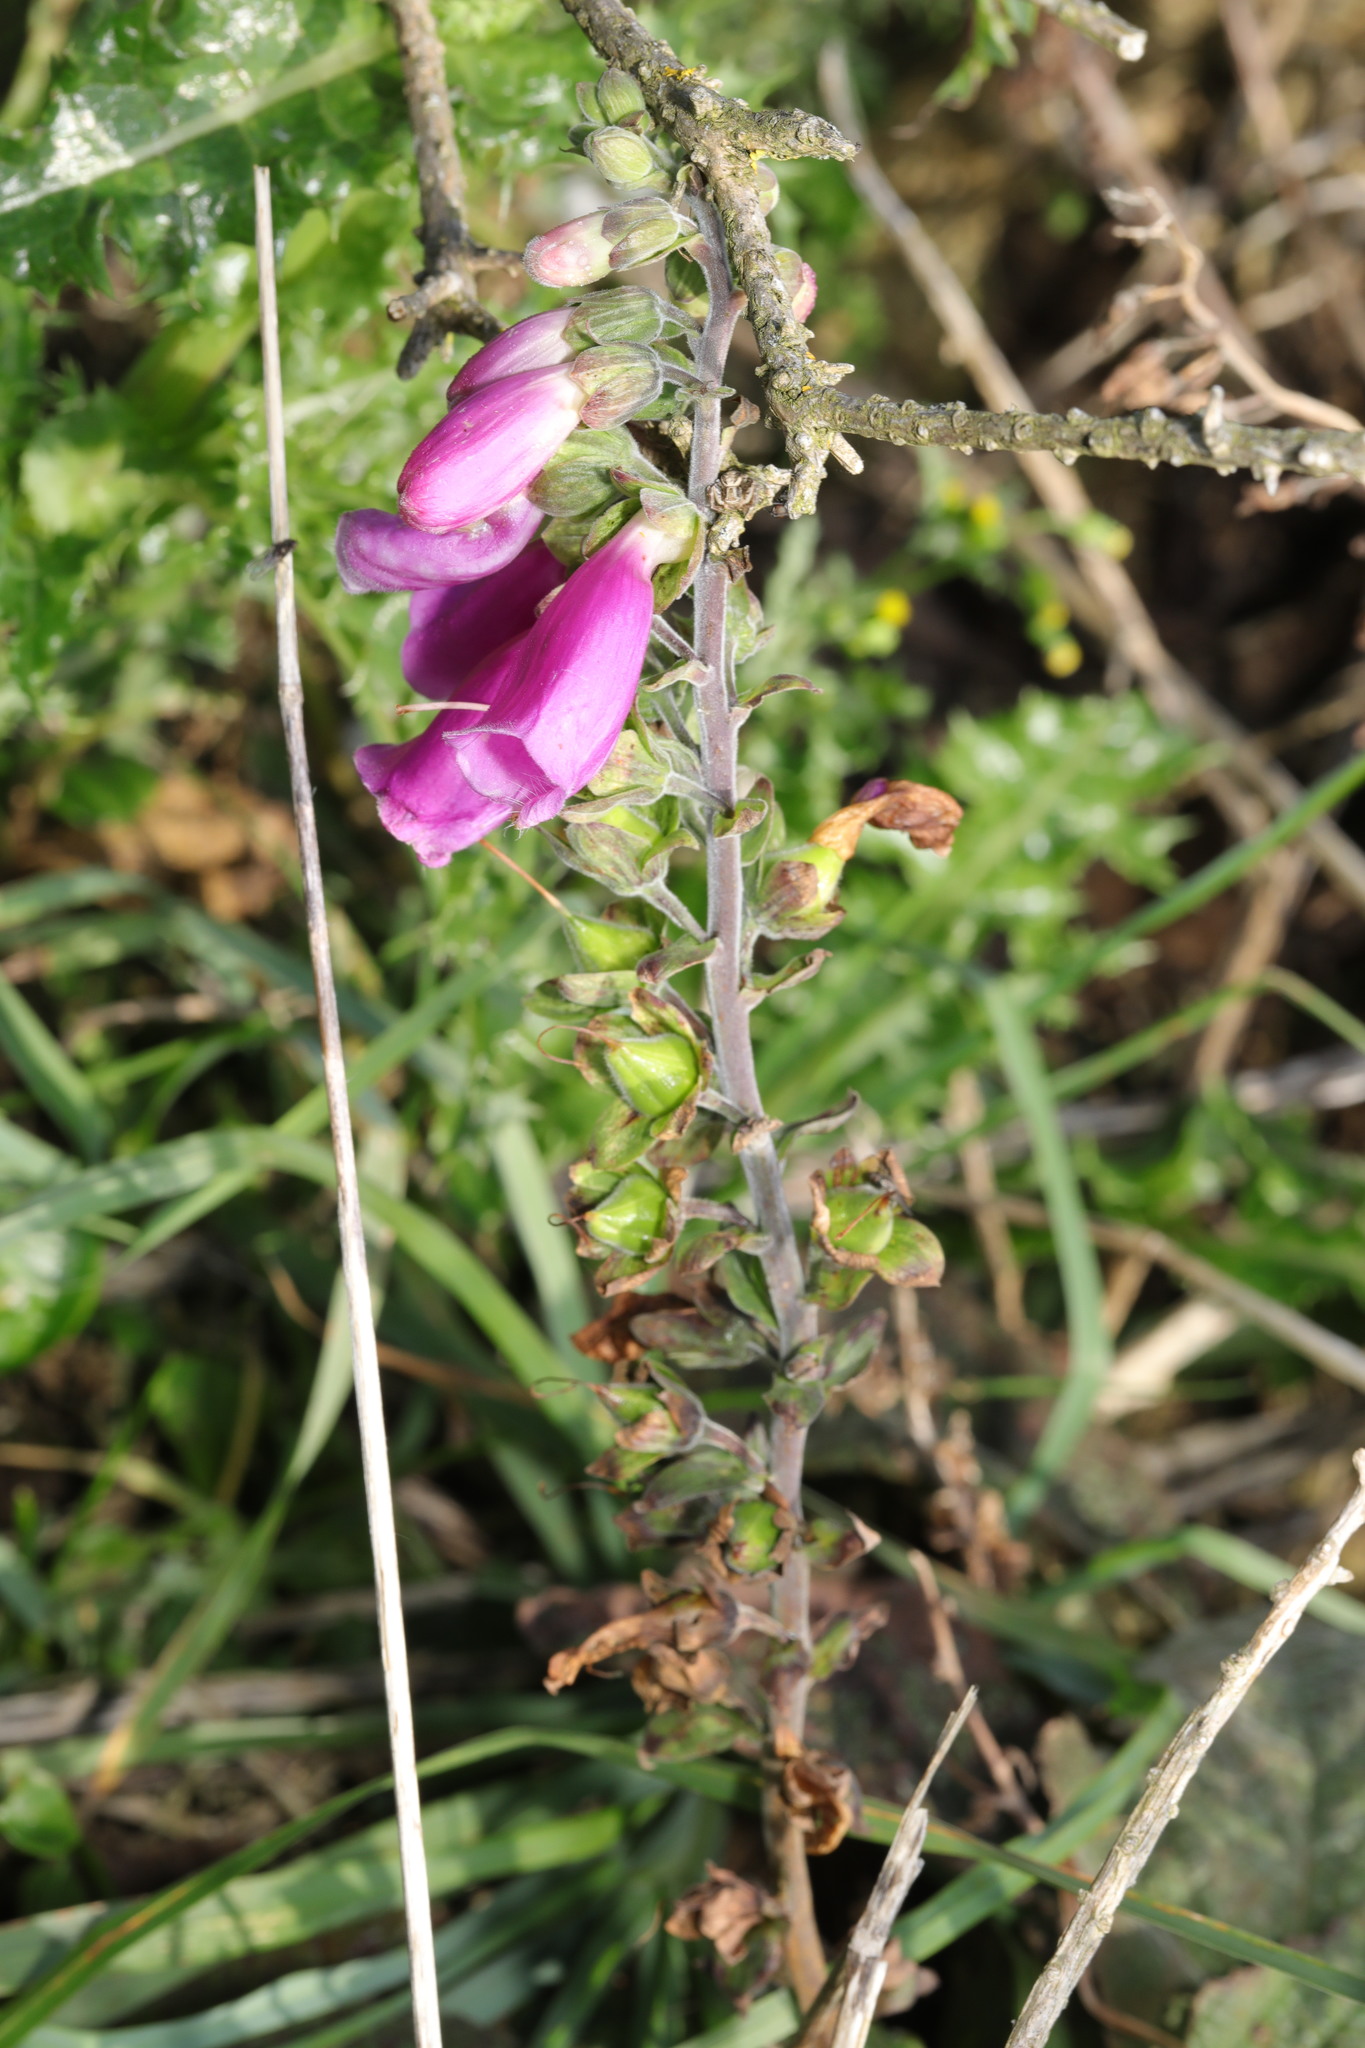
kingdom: Plantae
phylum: Tracheophyta
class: Magnoliopsida
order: Lamiales
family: Plantaginaceae
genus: Digitalis
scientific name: Digitalis purpurea
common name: Foxglove
